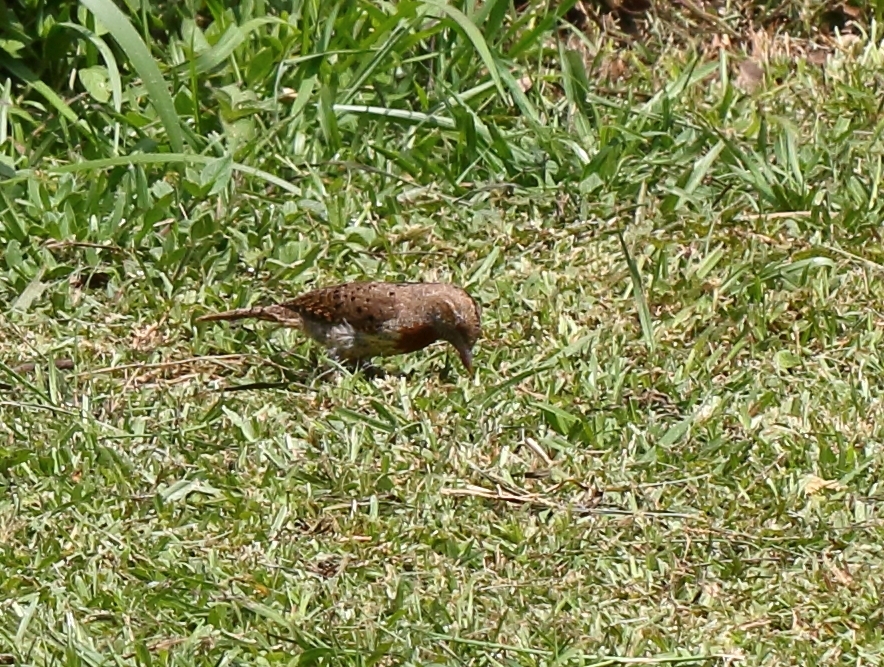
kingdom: Animalia
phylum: Chordata
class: Aves
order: Piciformes
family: Picidae
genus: Jynx
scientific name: Jynx ruficollis
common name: Red-throated wryneck
